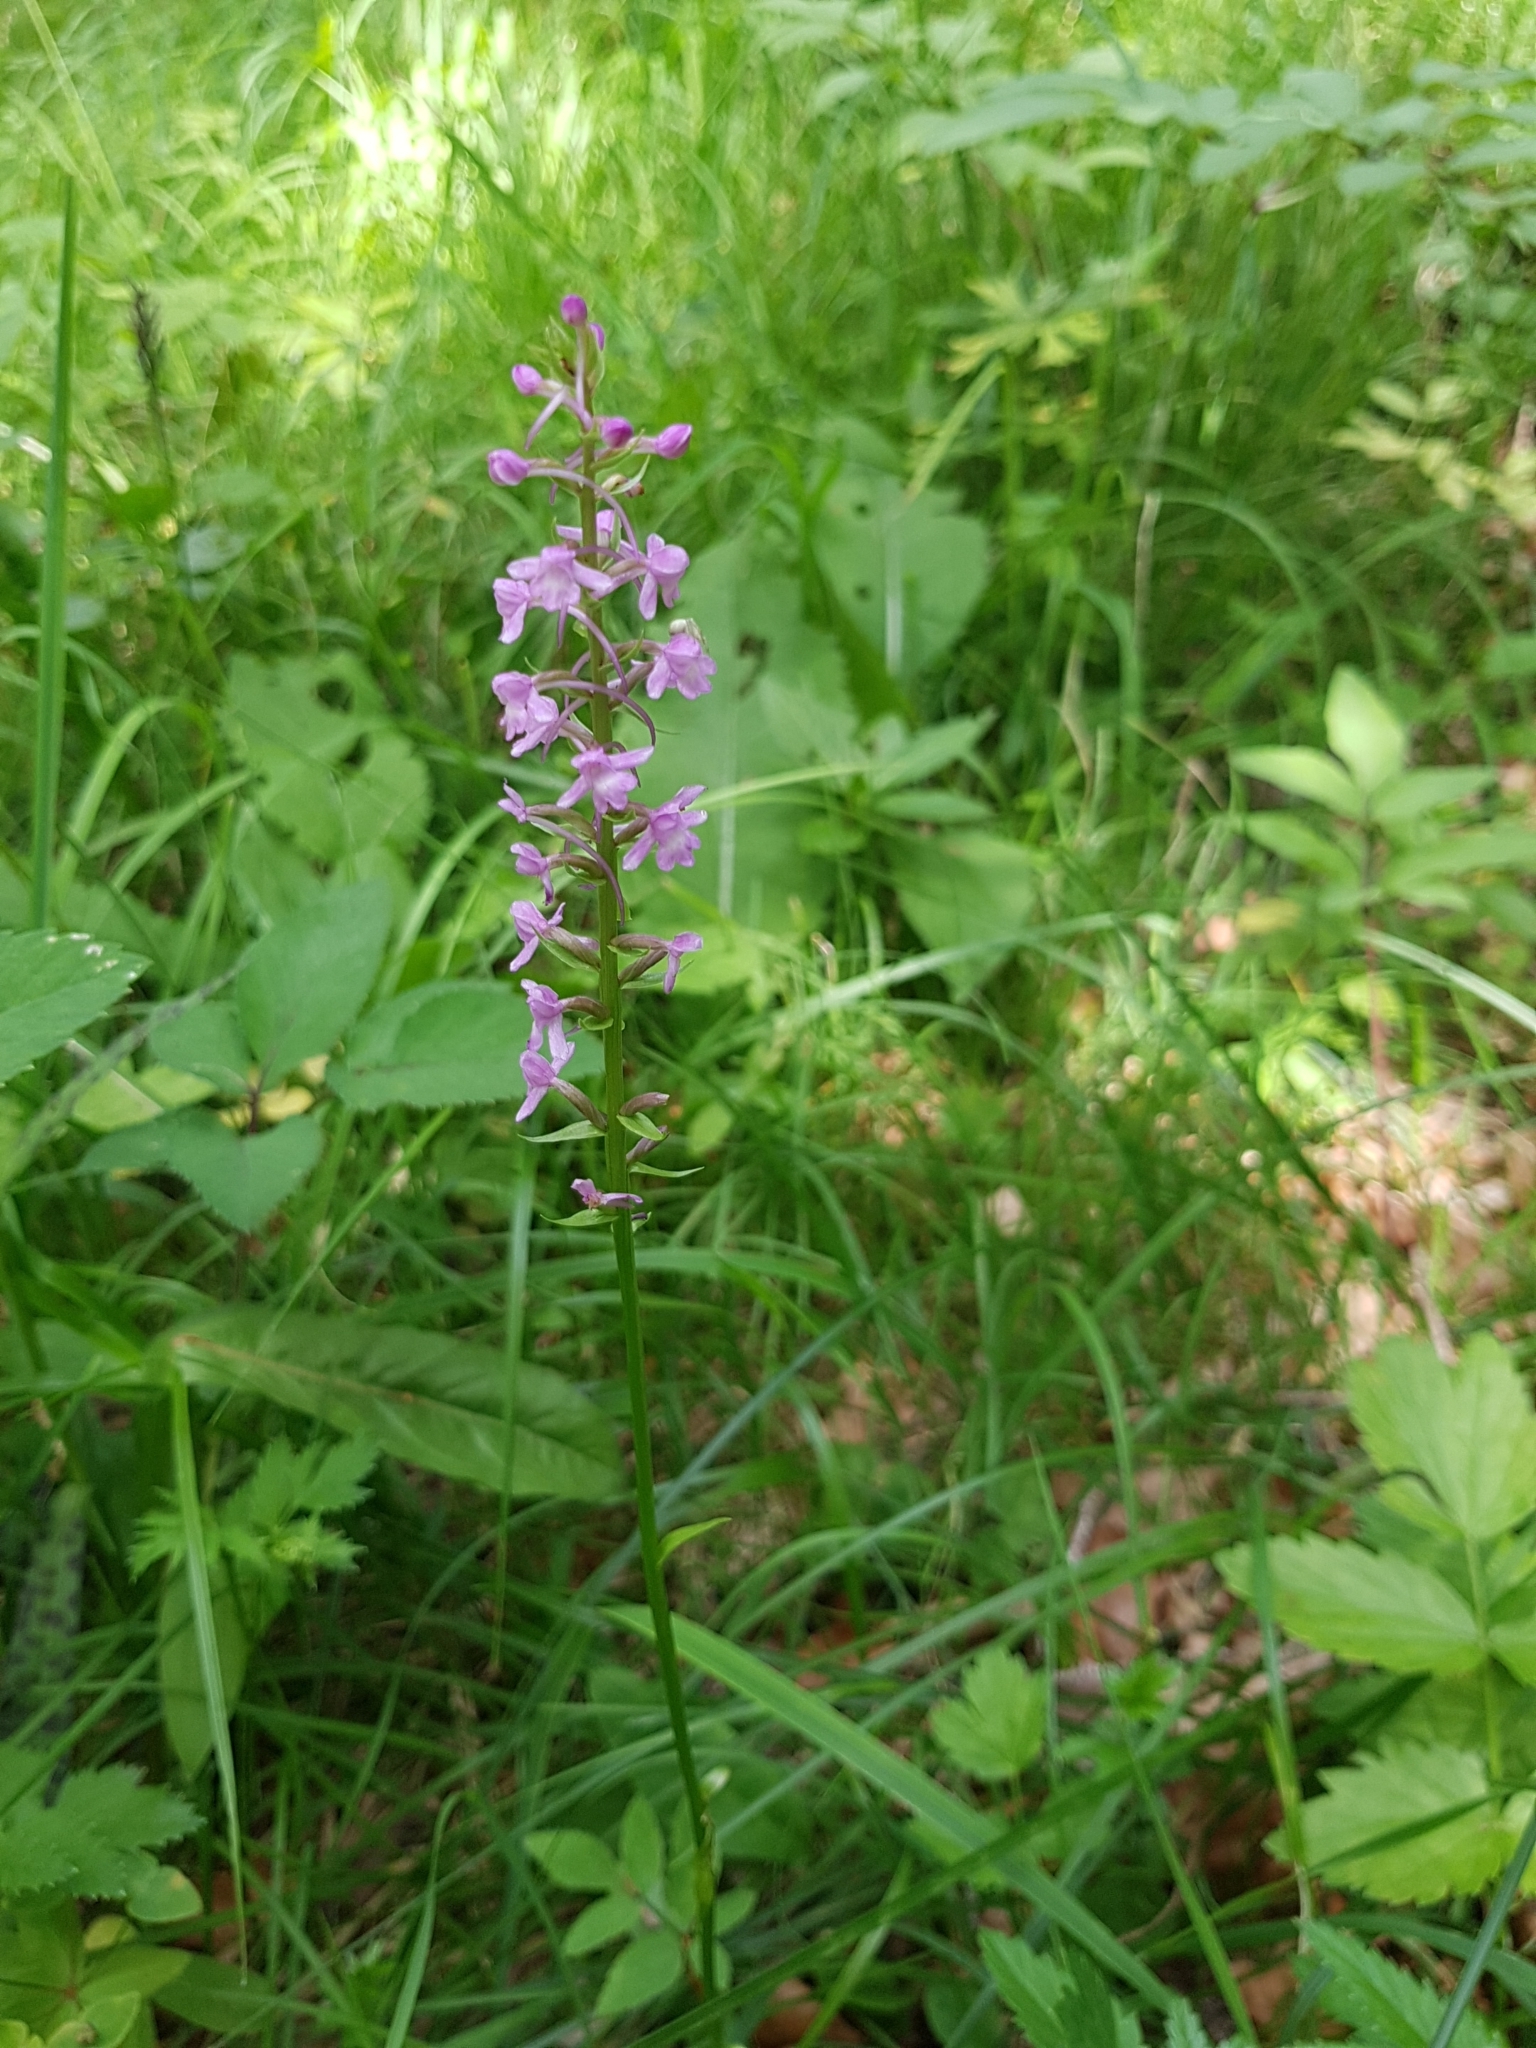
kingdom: Plantae
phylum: Tracheophyta
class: Liliopsida
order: Asparagales
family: Orchidaceae
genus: Gymnadenia
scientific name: Gymnadenia conopsea
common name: Fragrant orchid
